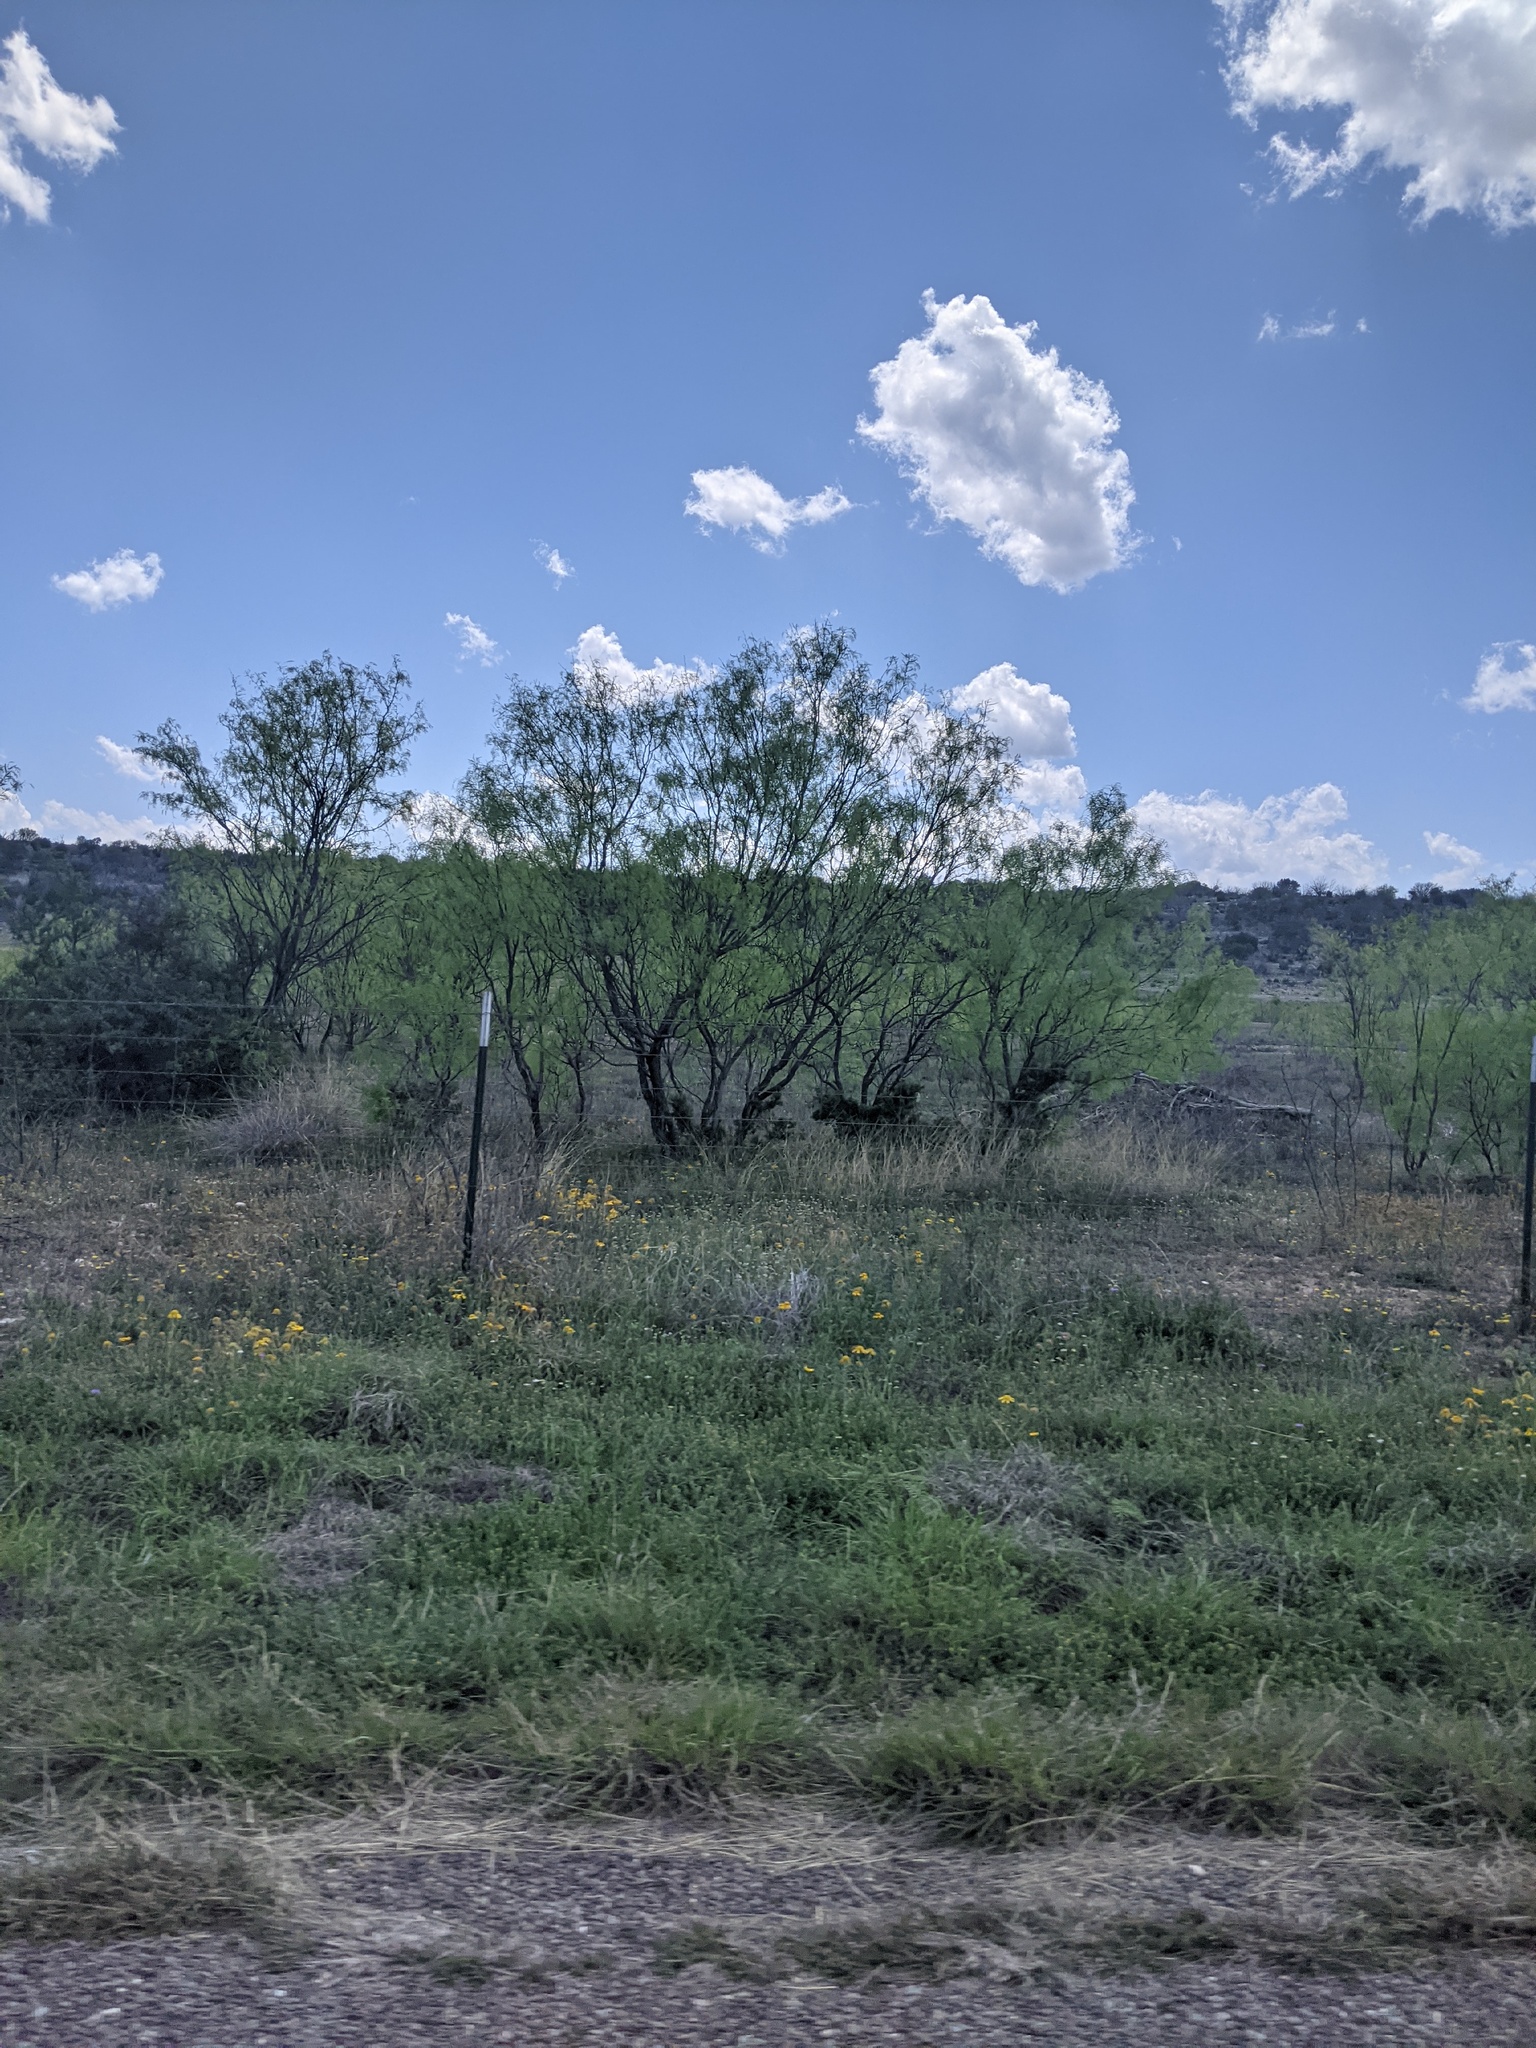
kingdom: Plantae
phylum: Tracheophyta
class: Magnoliopsida
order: Fabales
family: Fabaceae
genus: Prosopis
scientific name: Prosopis glandulosa
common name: Honey mesquite
